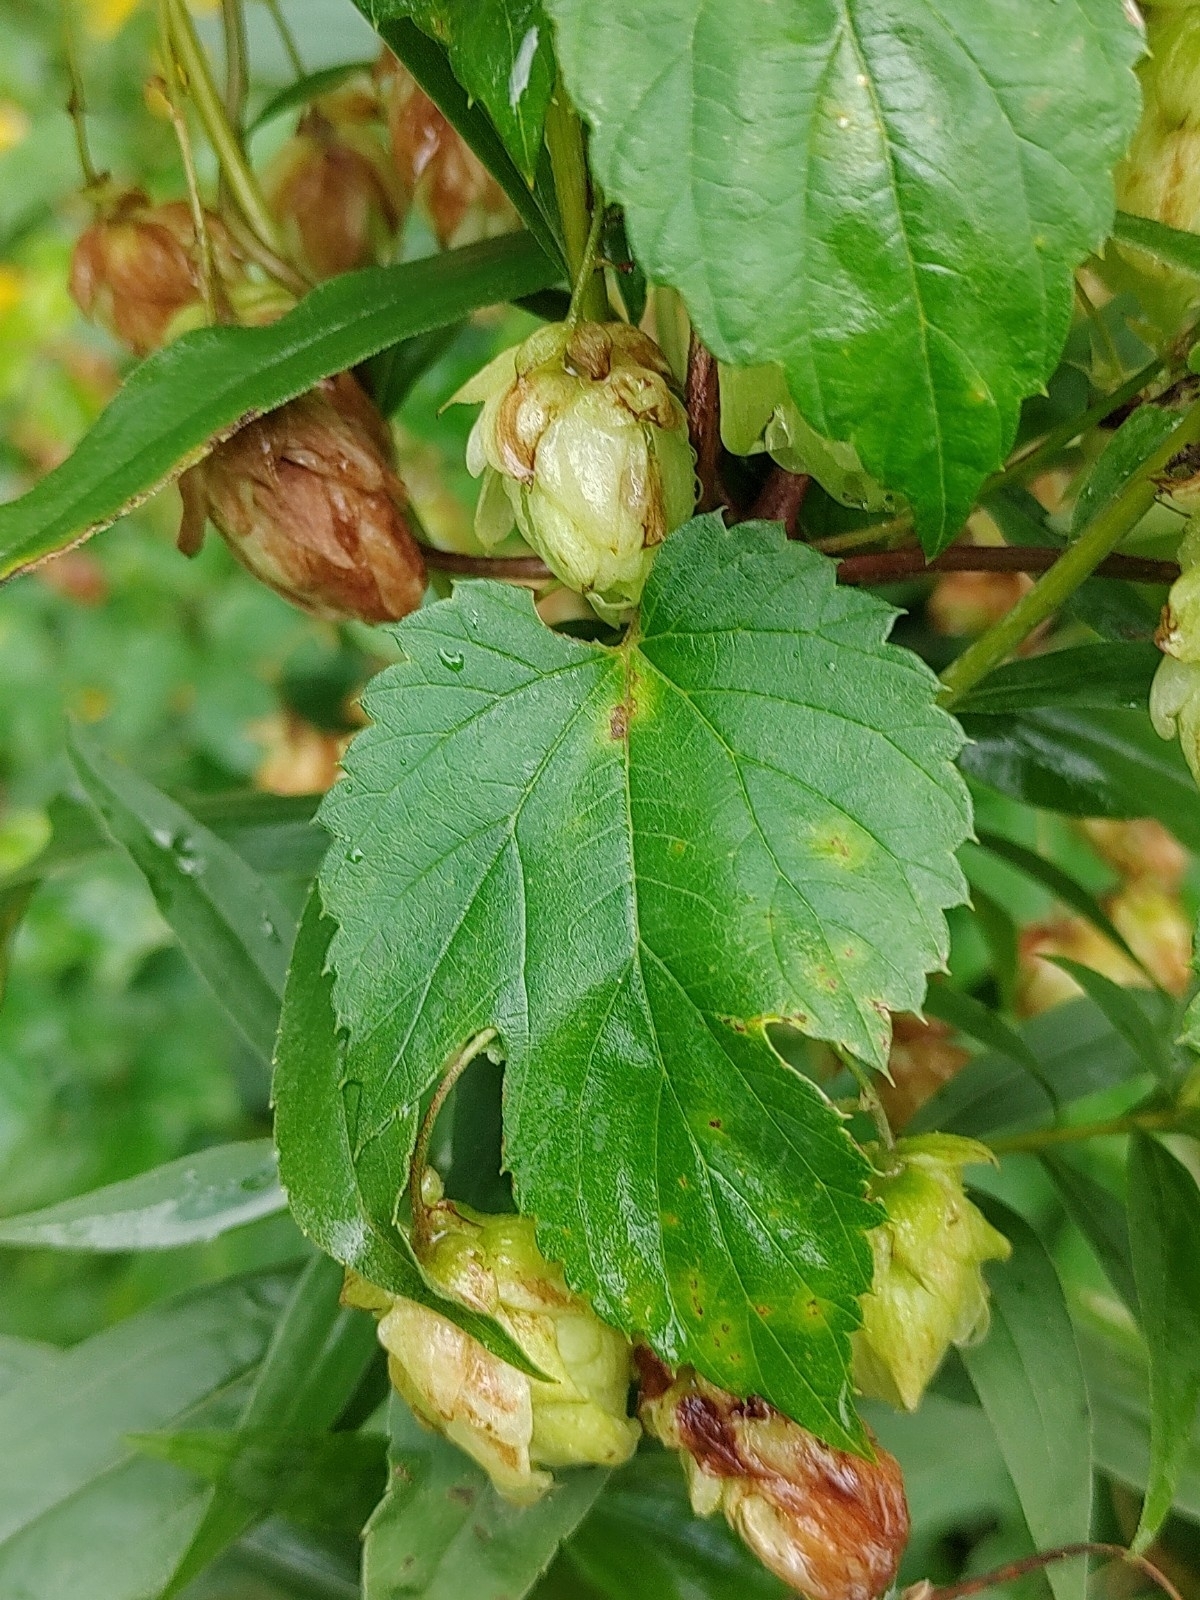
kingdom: Plantae
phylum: Tracheophyta
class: Magnoliopsida
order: Rosales
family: Cannabaceae
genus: Humulus
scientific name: Humulus lupulus
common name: Hop
